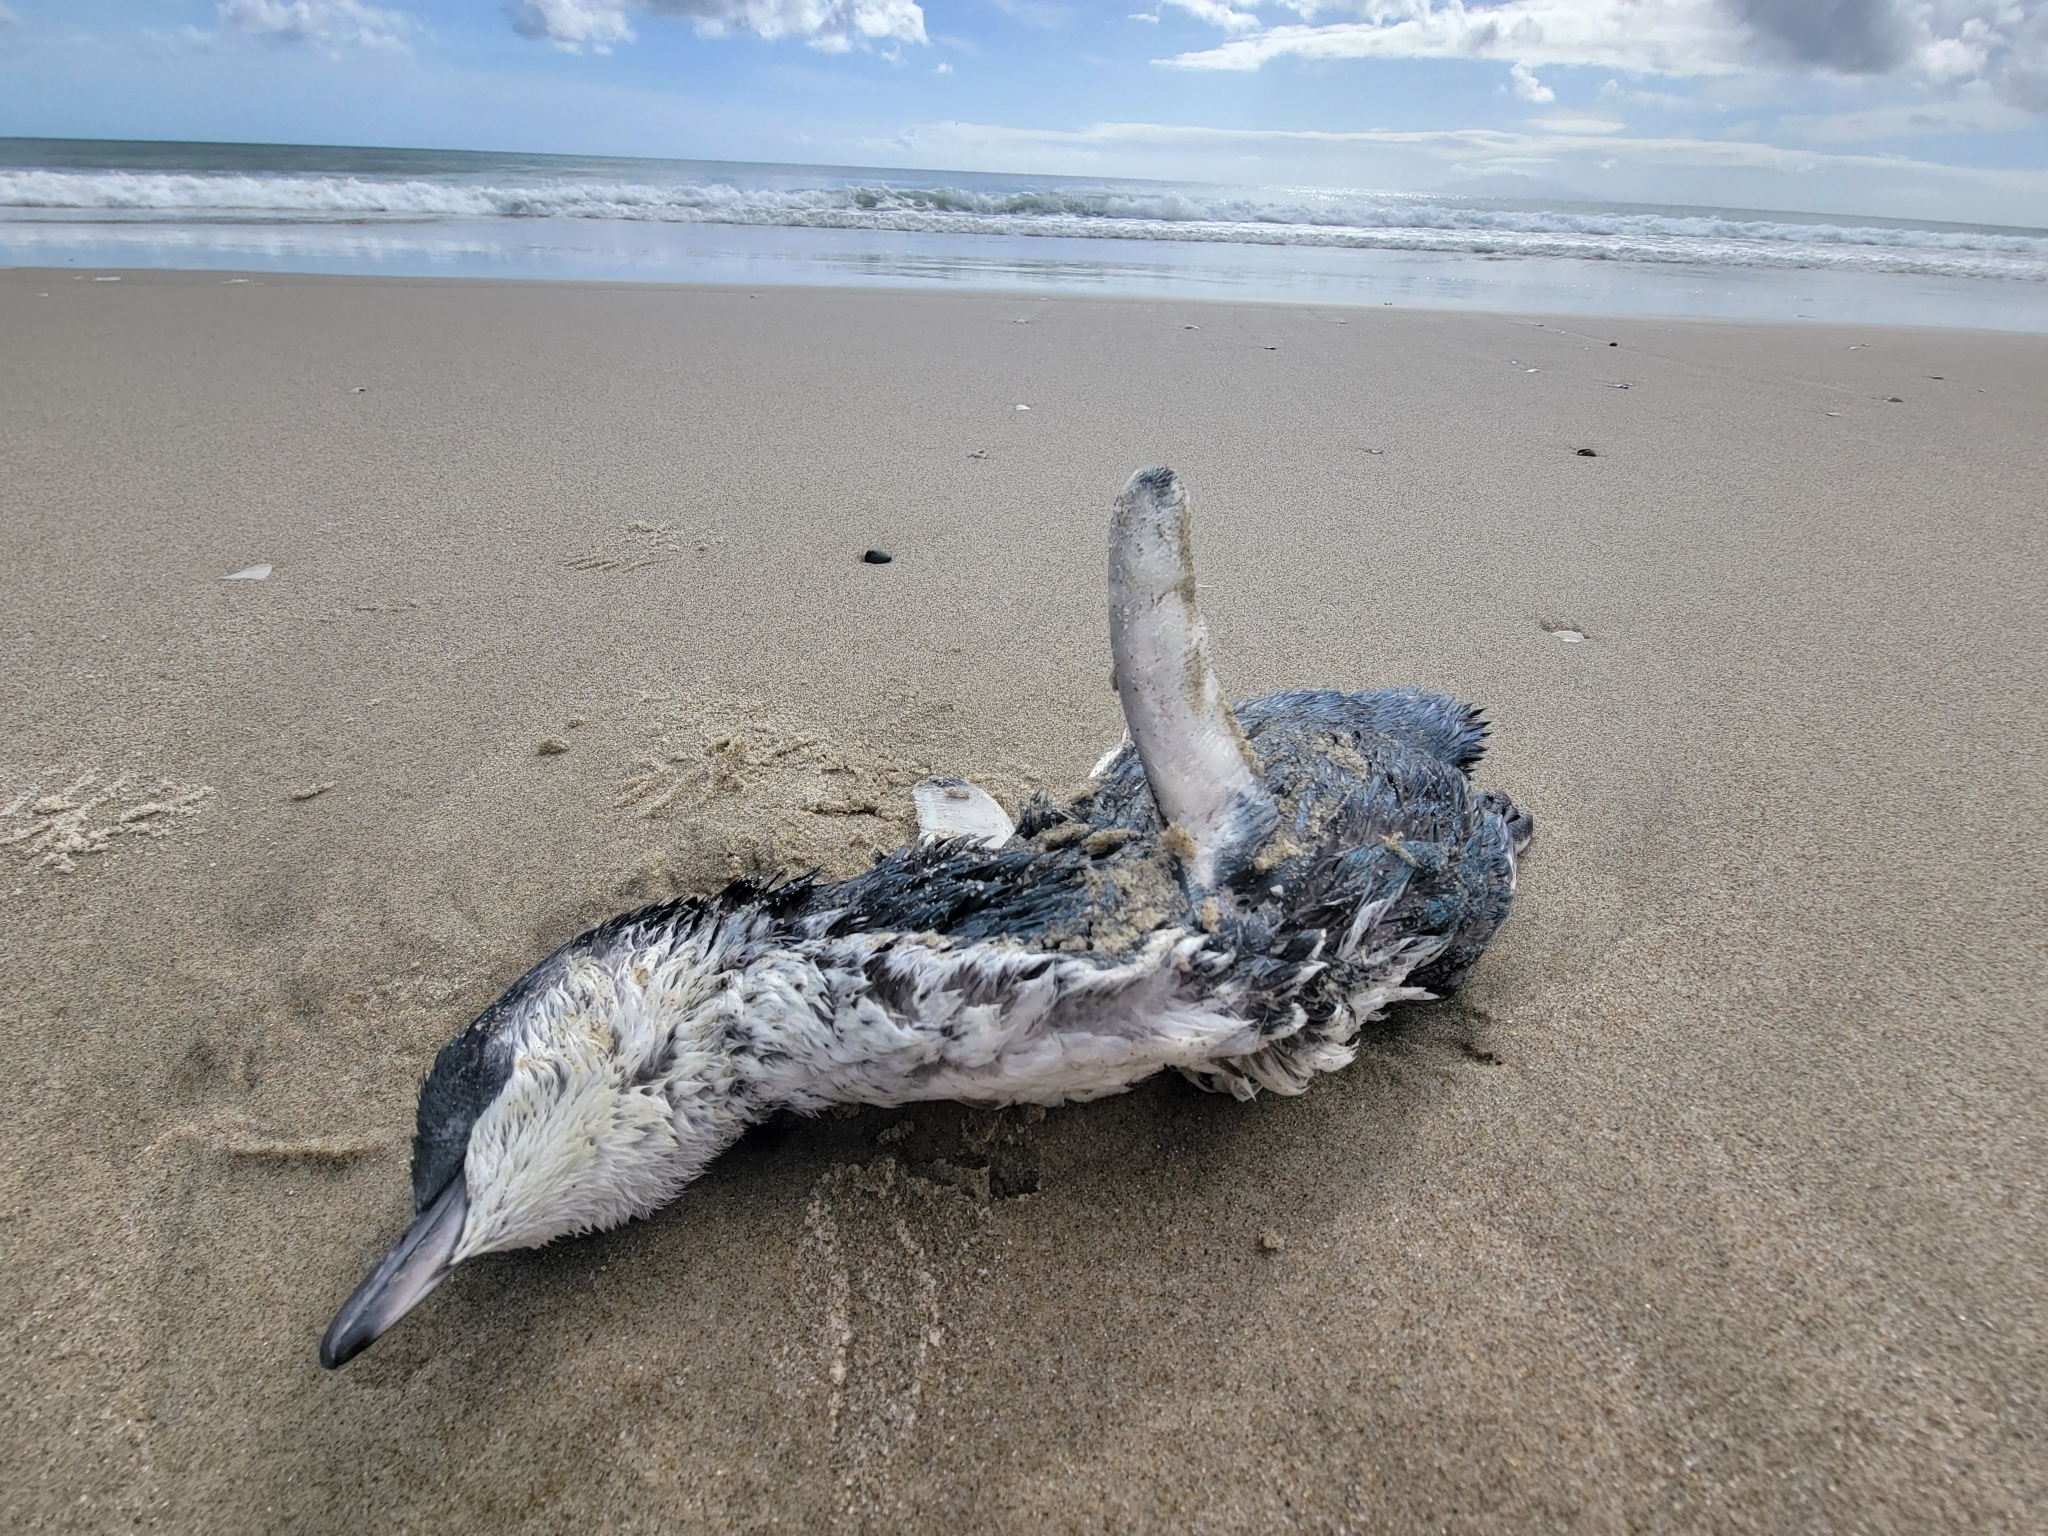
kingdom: Animalia
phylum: Chordata
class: Aves
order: Sphenisciformes
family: Spheniscidae
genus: Eudyptula
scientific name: Eudyptula minor
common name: Little penguin
